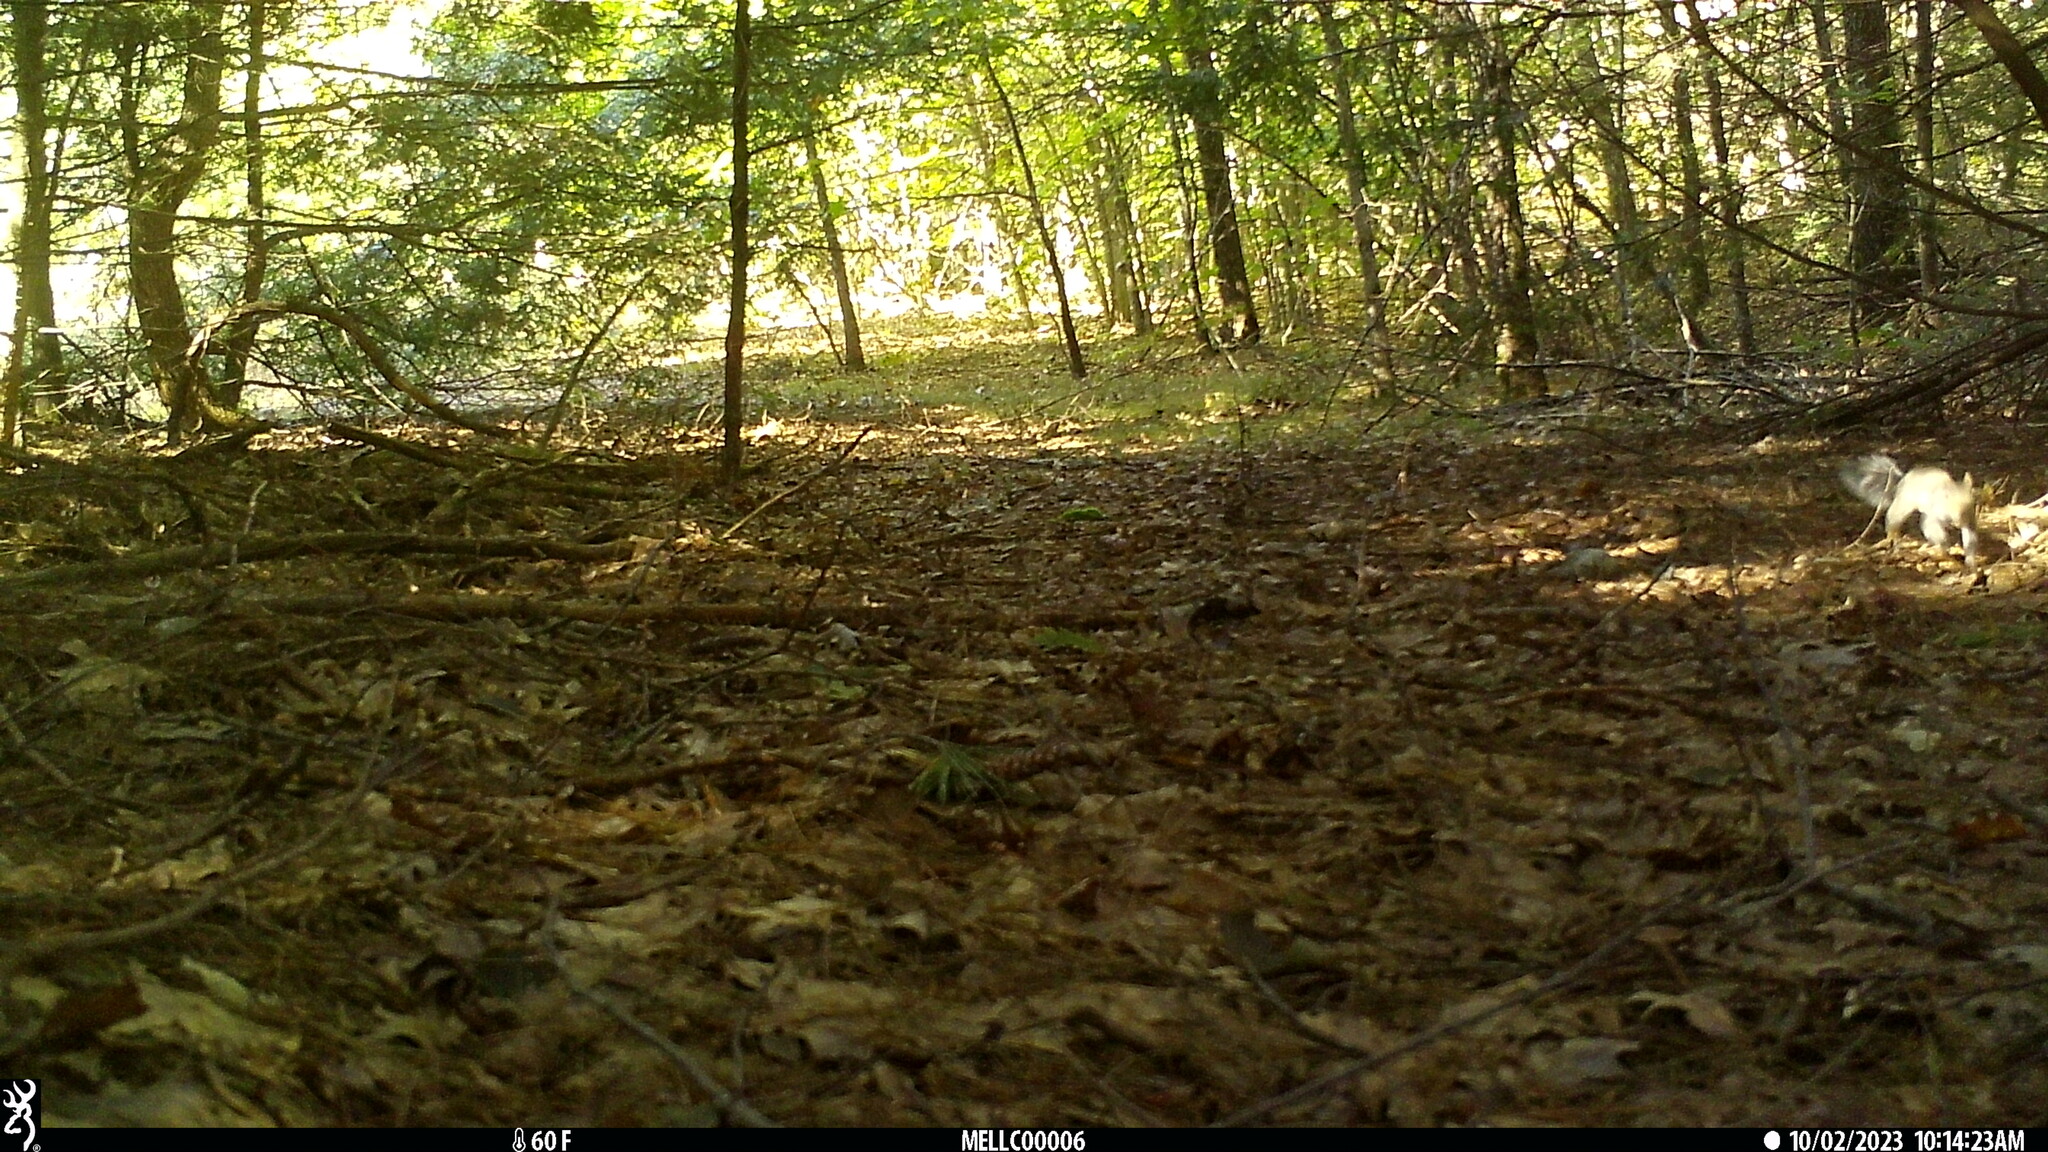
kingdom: Animalia
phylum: Chordata
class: Mammalia
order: Rodentia
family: Sciuridae
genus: Sciurus
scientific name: Sciurus carolinensis
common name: Eastern gray squirrel
